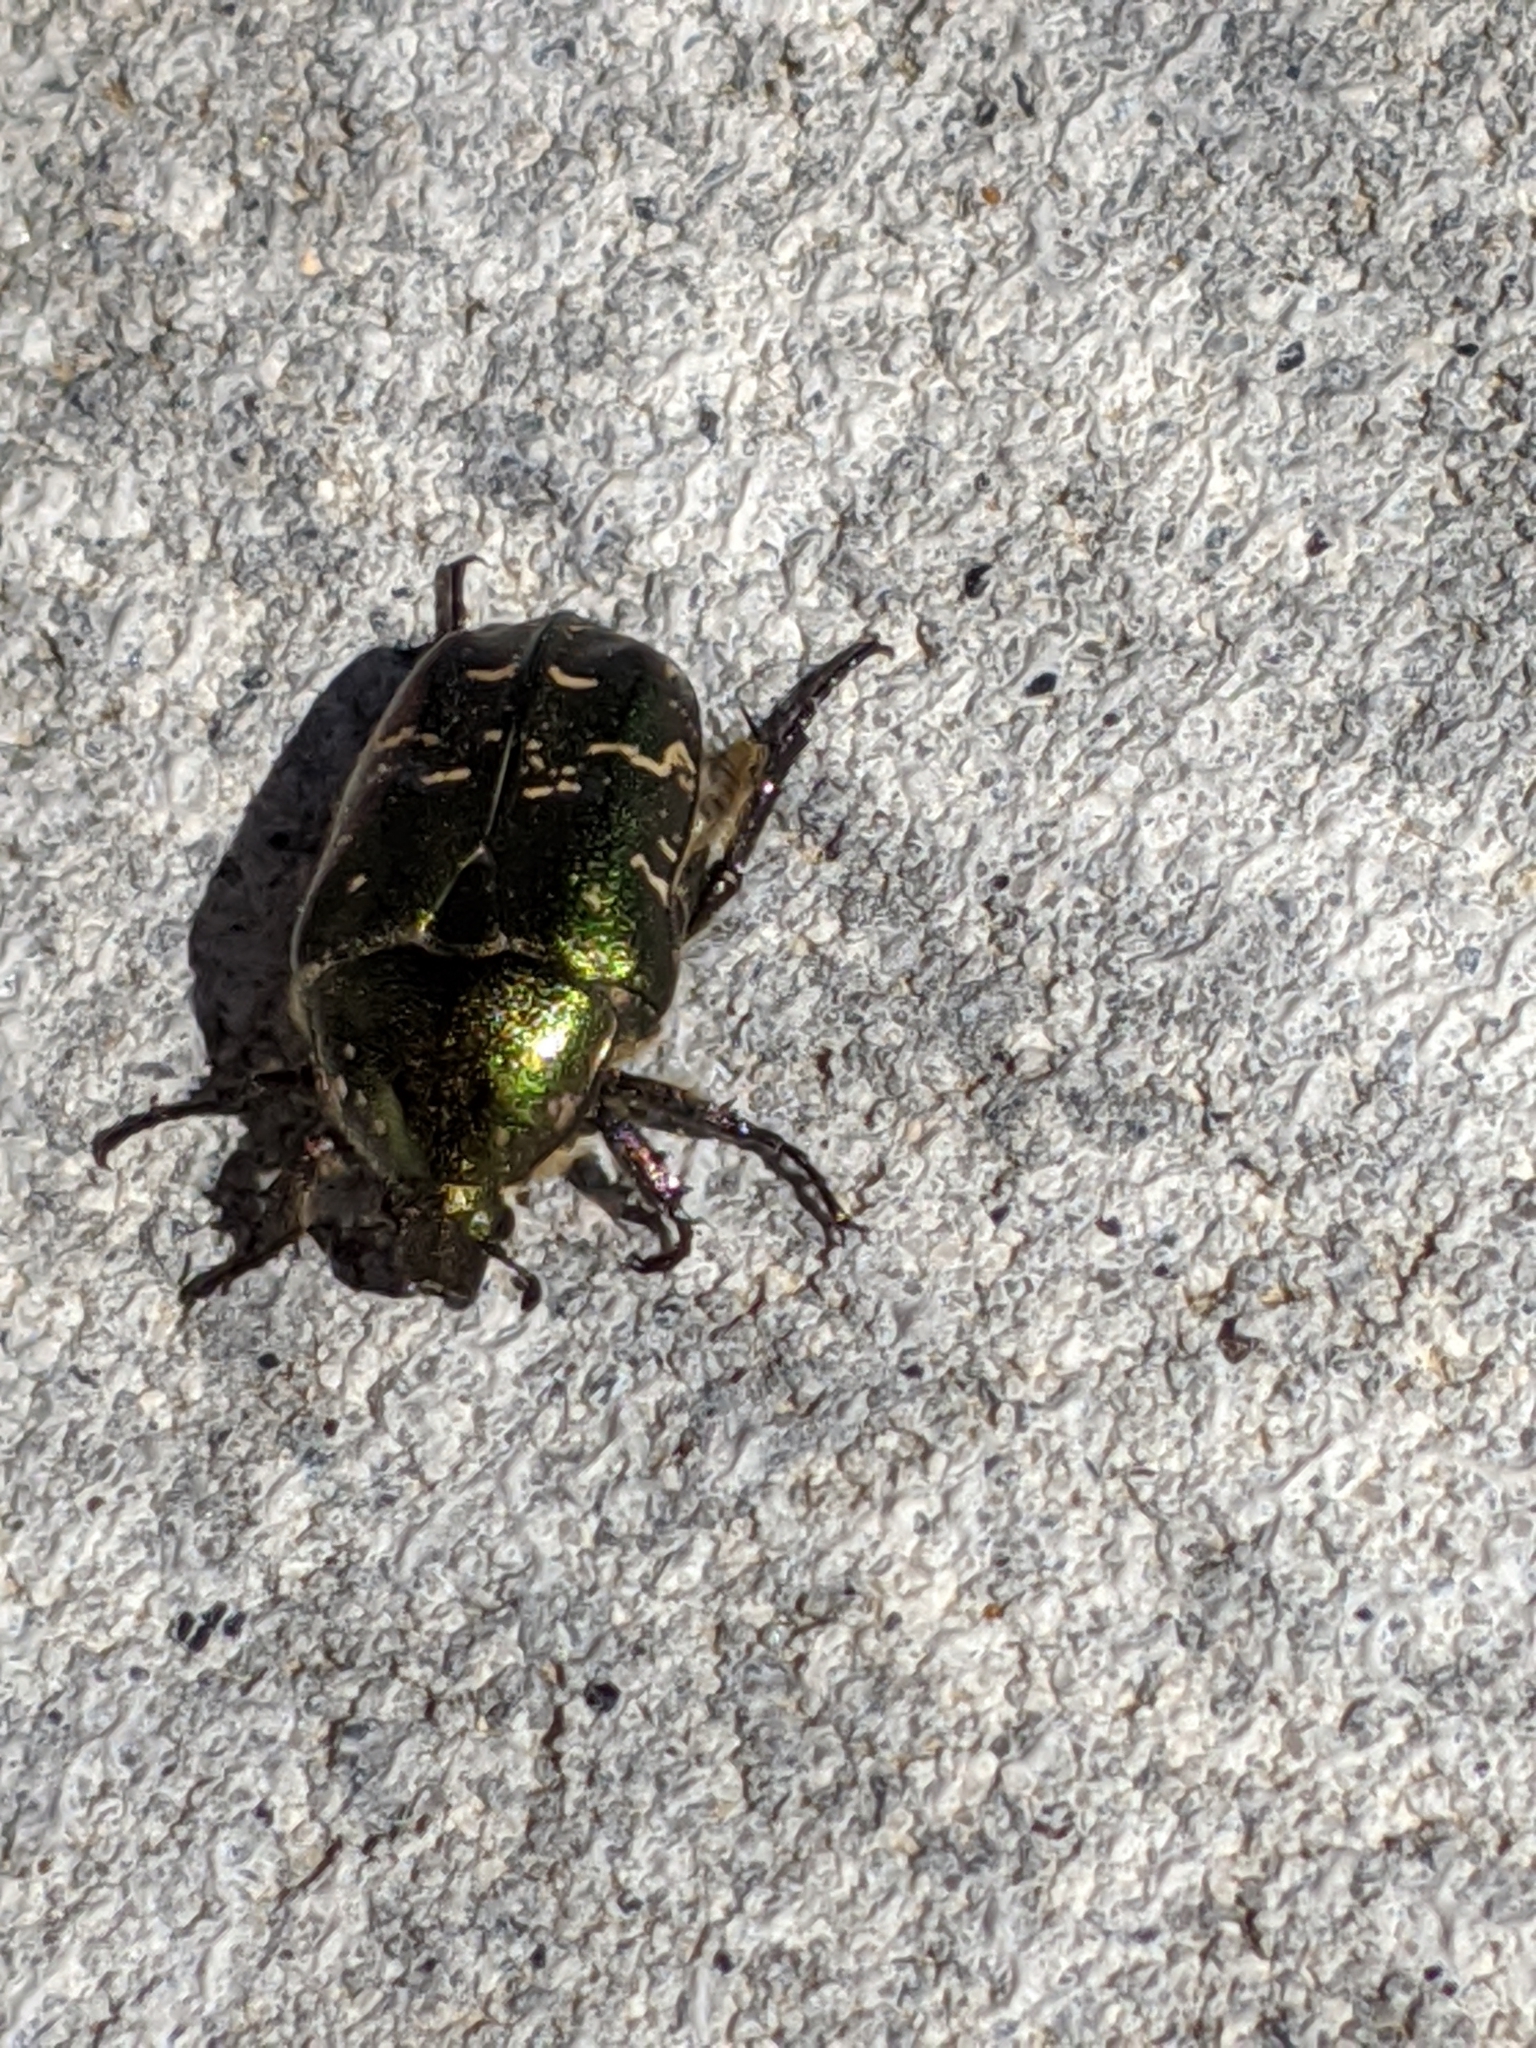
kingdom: Animalia
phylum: Arthropoda
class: Insecta
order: Coleoptera
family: Scarabaeidae
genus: Protaetia
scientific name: Protaetia cuprea
